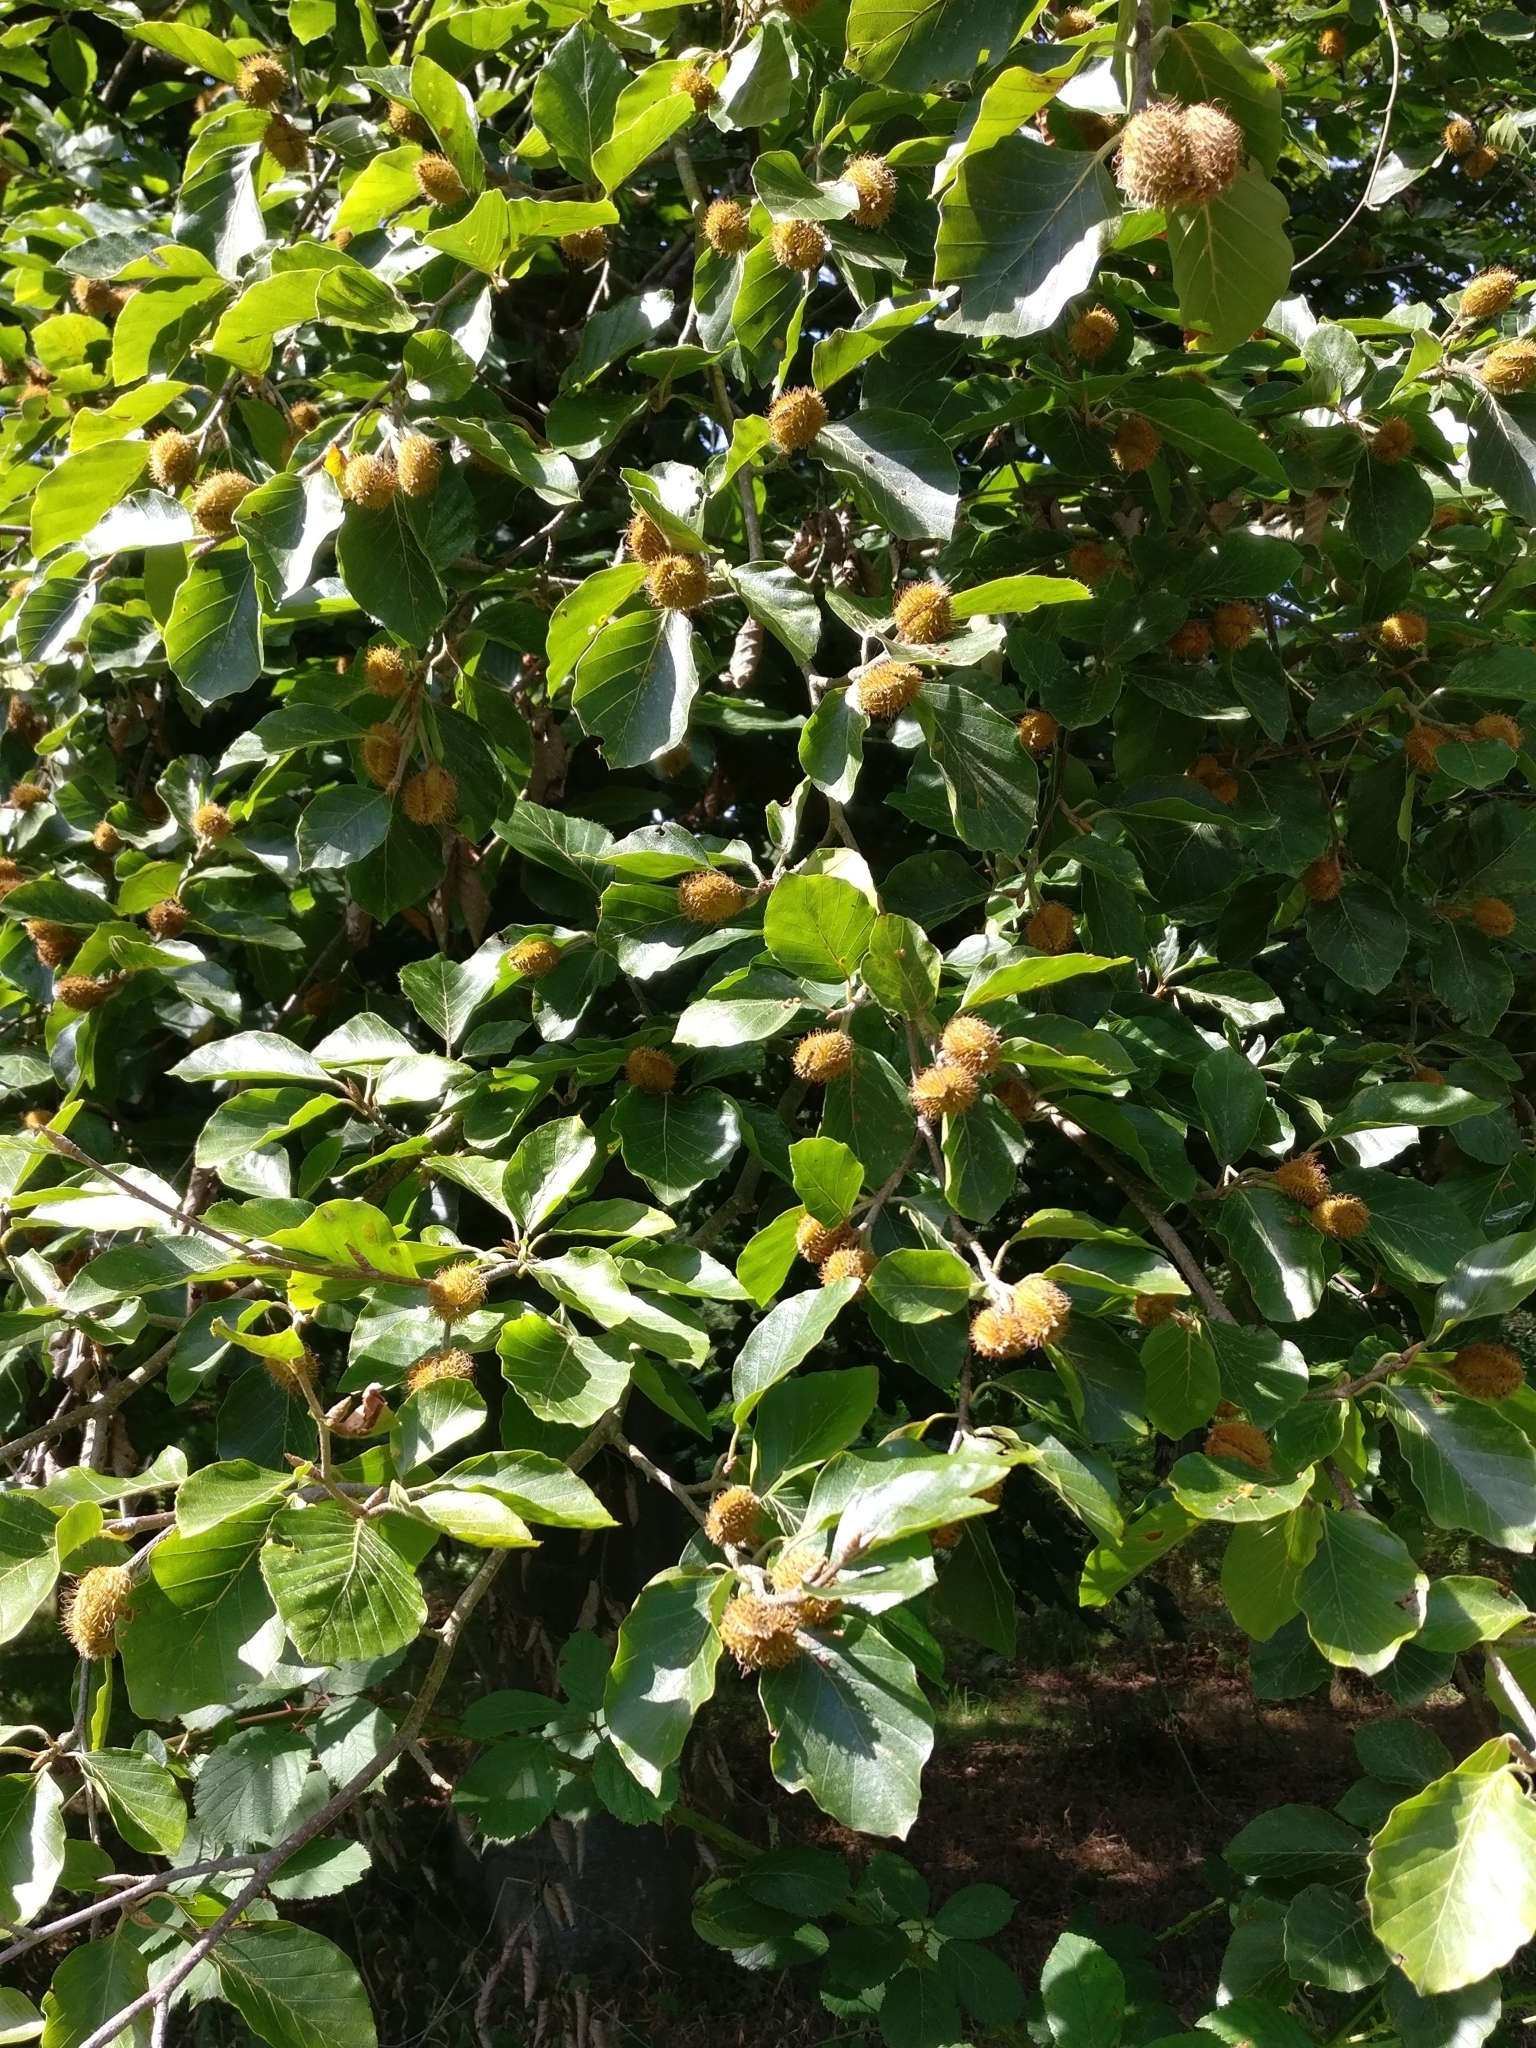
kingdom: Plantae
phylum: Tracheophyta
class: Magnoliopsida
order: Fagales
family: Fagaceae
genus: Fagus
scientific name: Fagus sylvatica
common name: Beech
